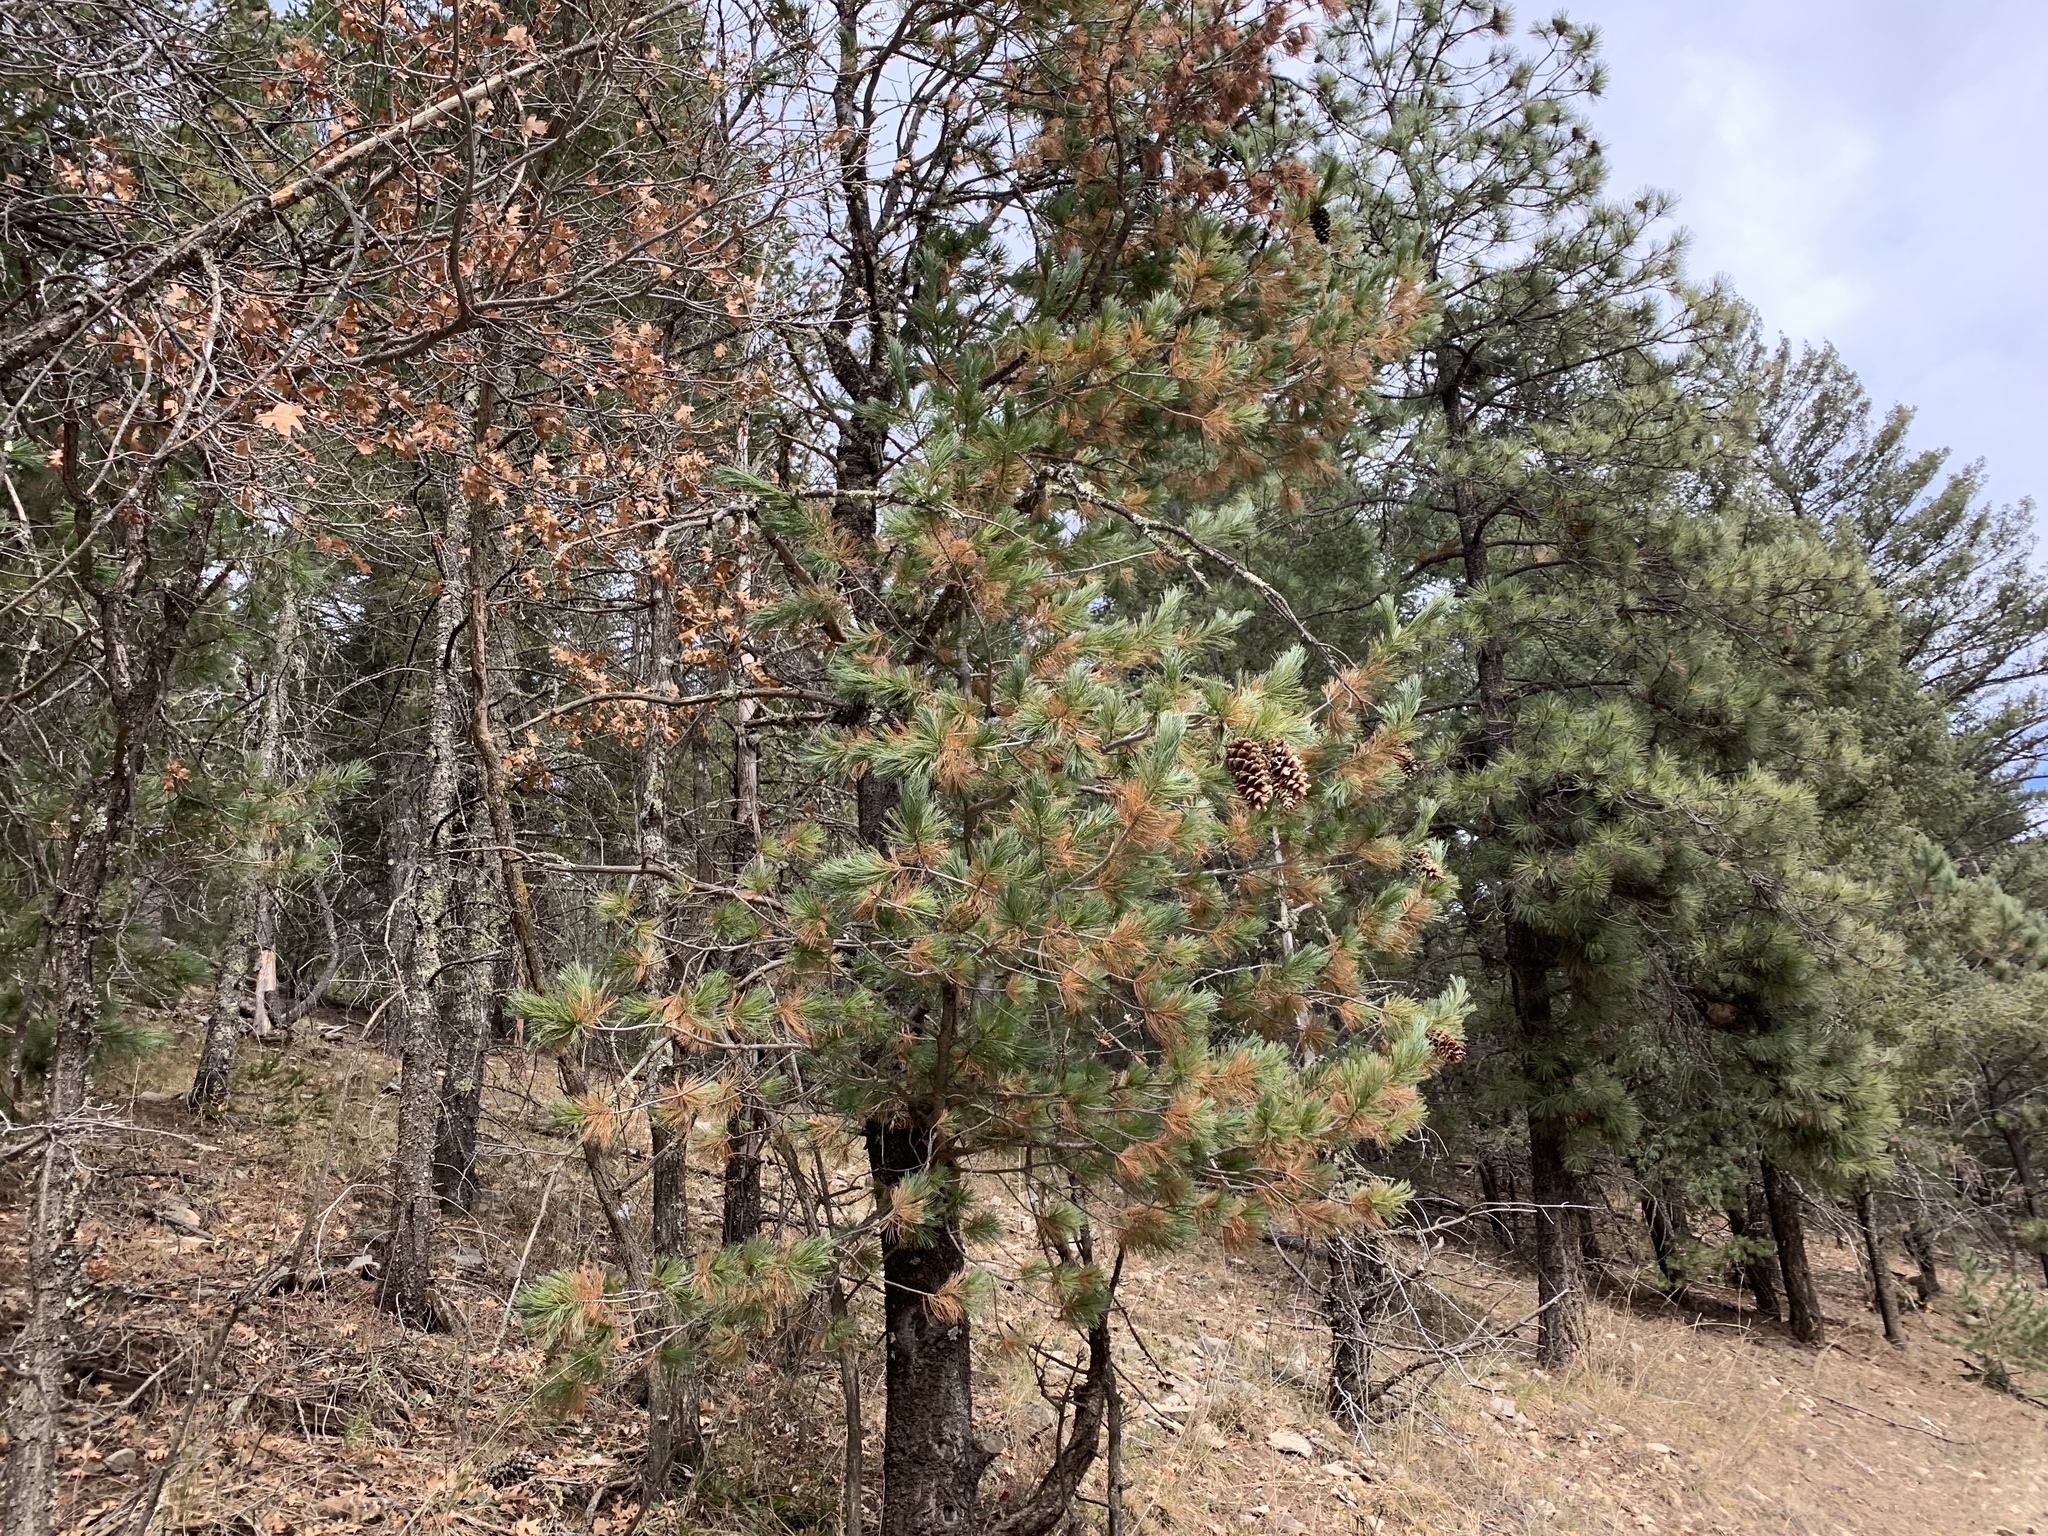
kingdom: Plantae
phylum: Tracheophyta
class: Pinopsida
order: Pinales
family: Pinaceae
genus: Pinus
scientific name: Pinus strobiformis
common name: Southwestern white pine
